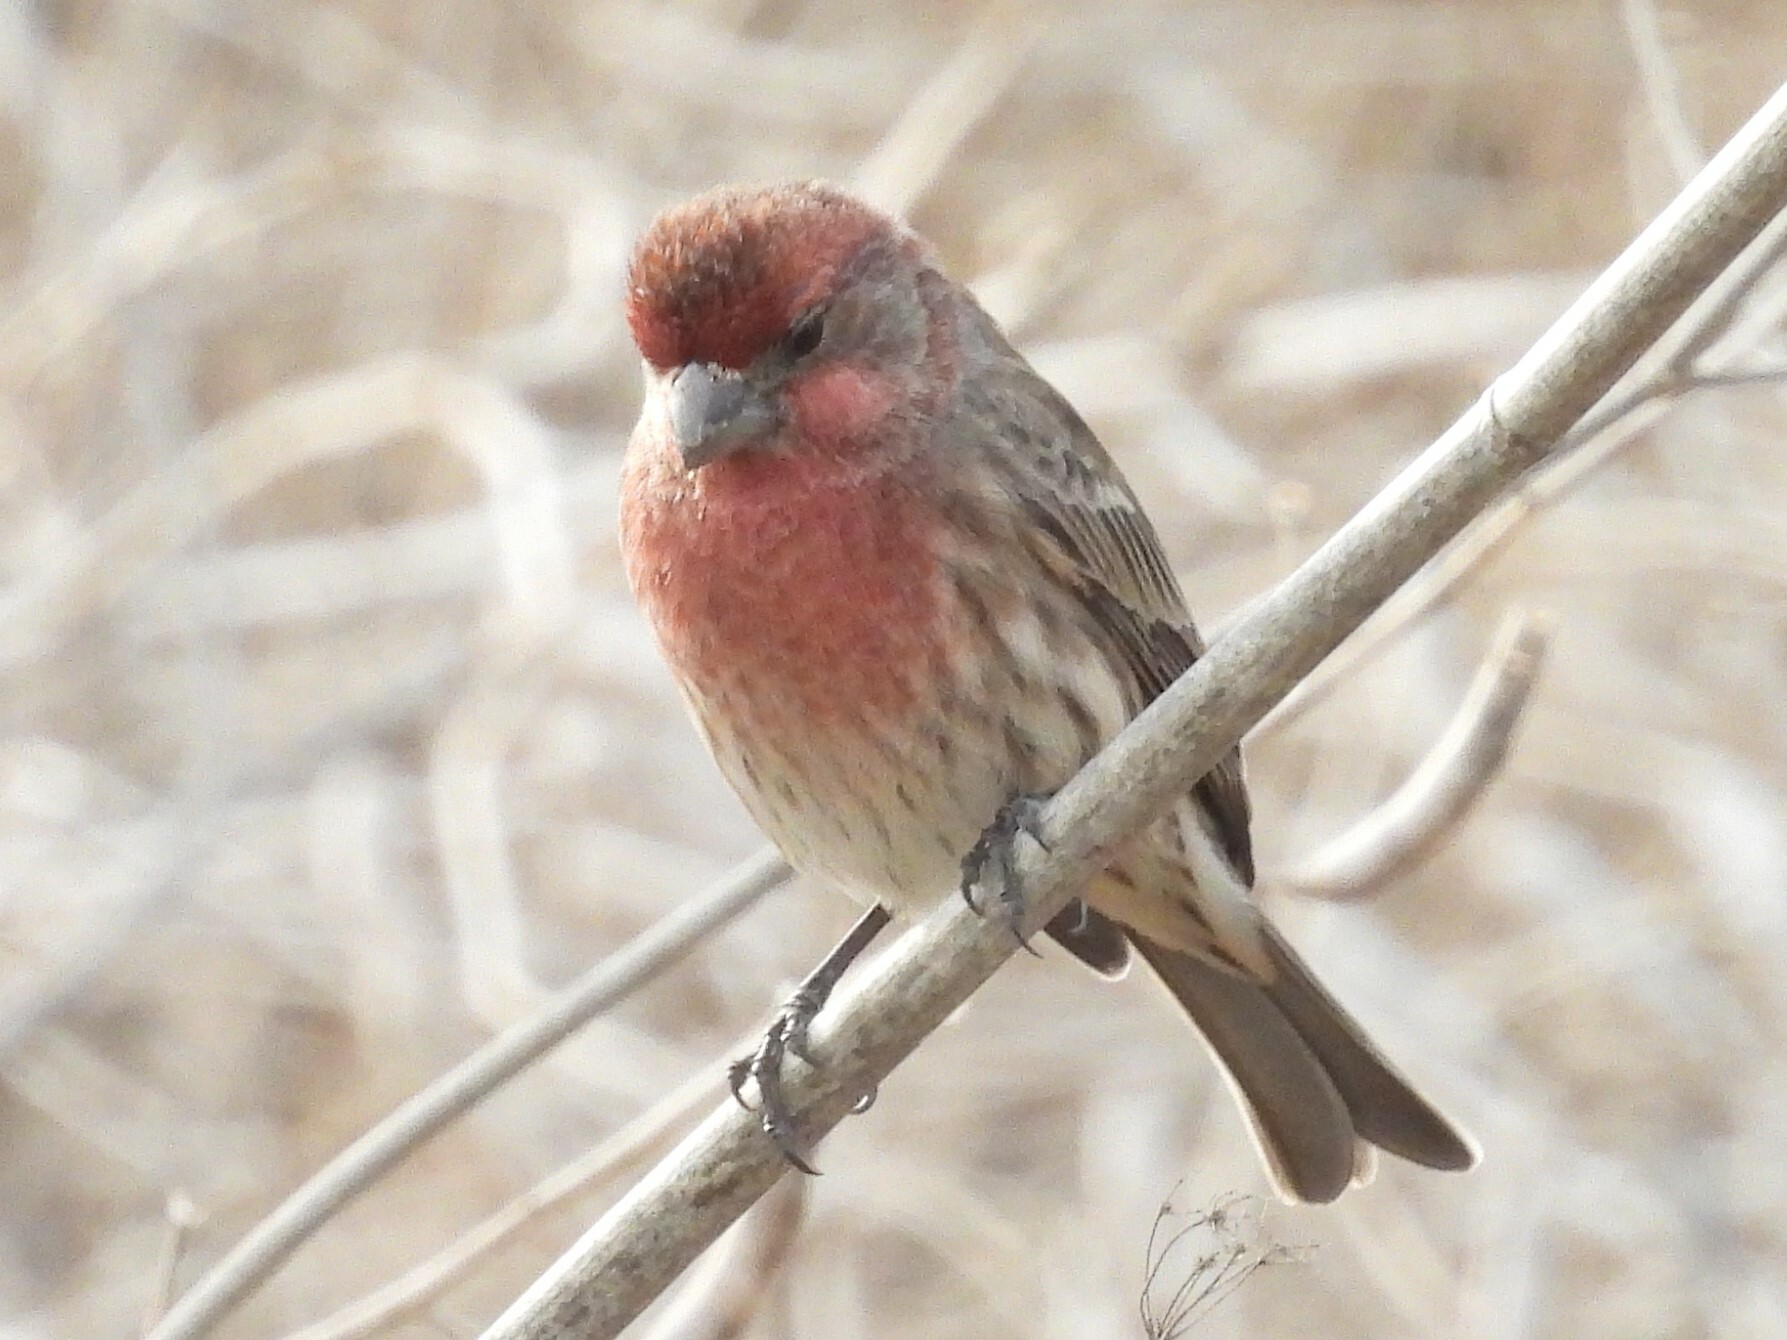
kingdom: Animalia
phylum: Chordata
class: Aves
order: Passeriformes
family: Fringillidae
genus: Haemorhous
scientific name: Haemorhous mexicanus
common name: House finch
